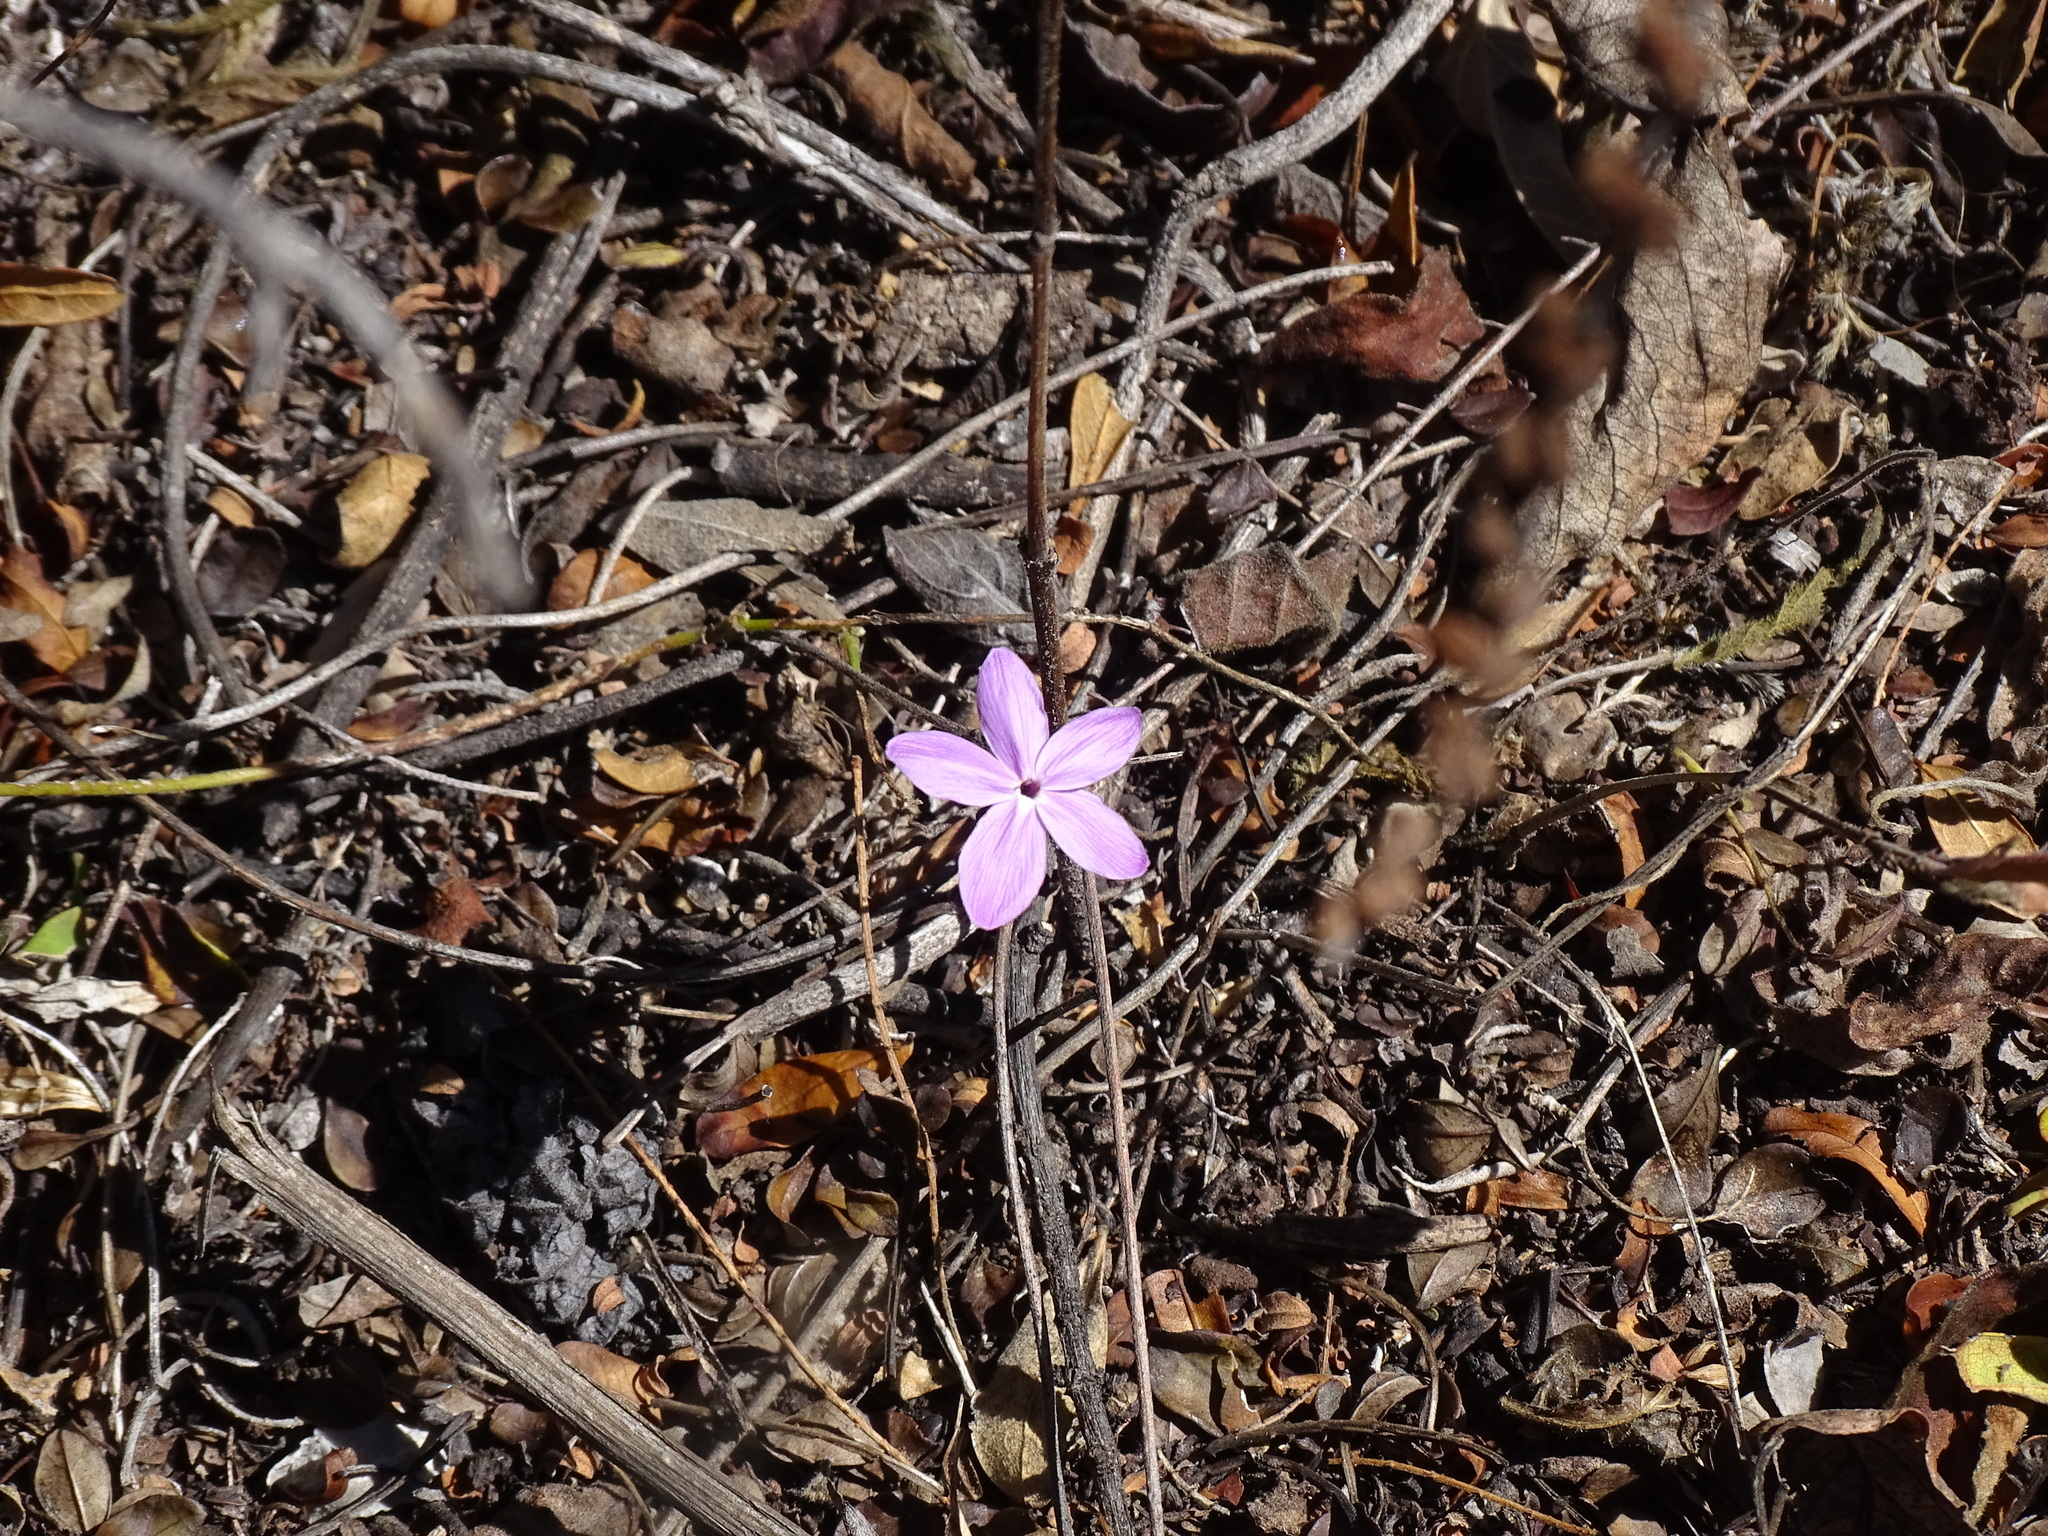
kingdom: Plantae
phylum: Tracheophyta
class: Magnoliopsida
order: Lamiales
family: Acanthaceae
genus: Pseuderanthemum
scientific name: Pseuderanthemum praecox
